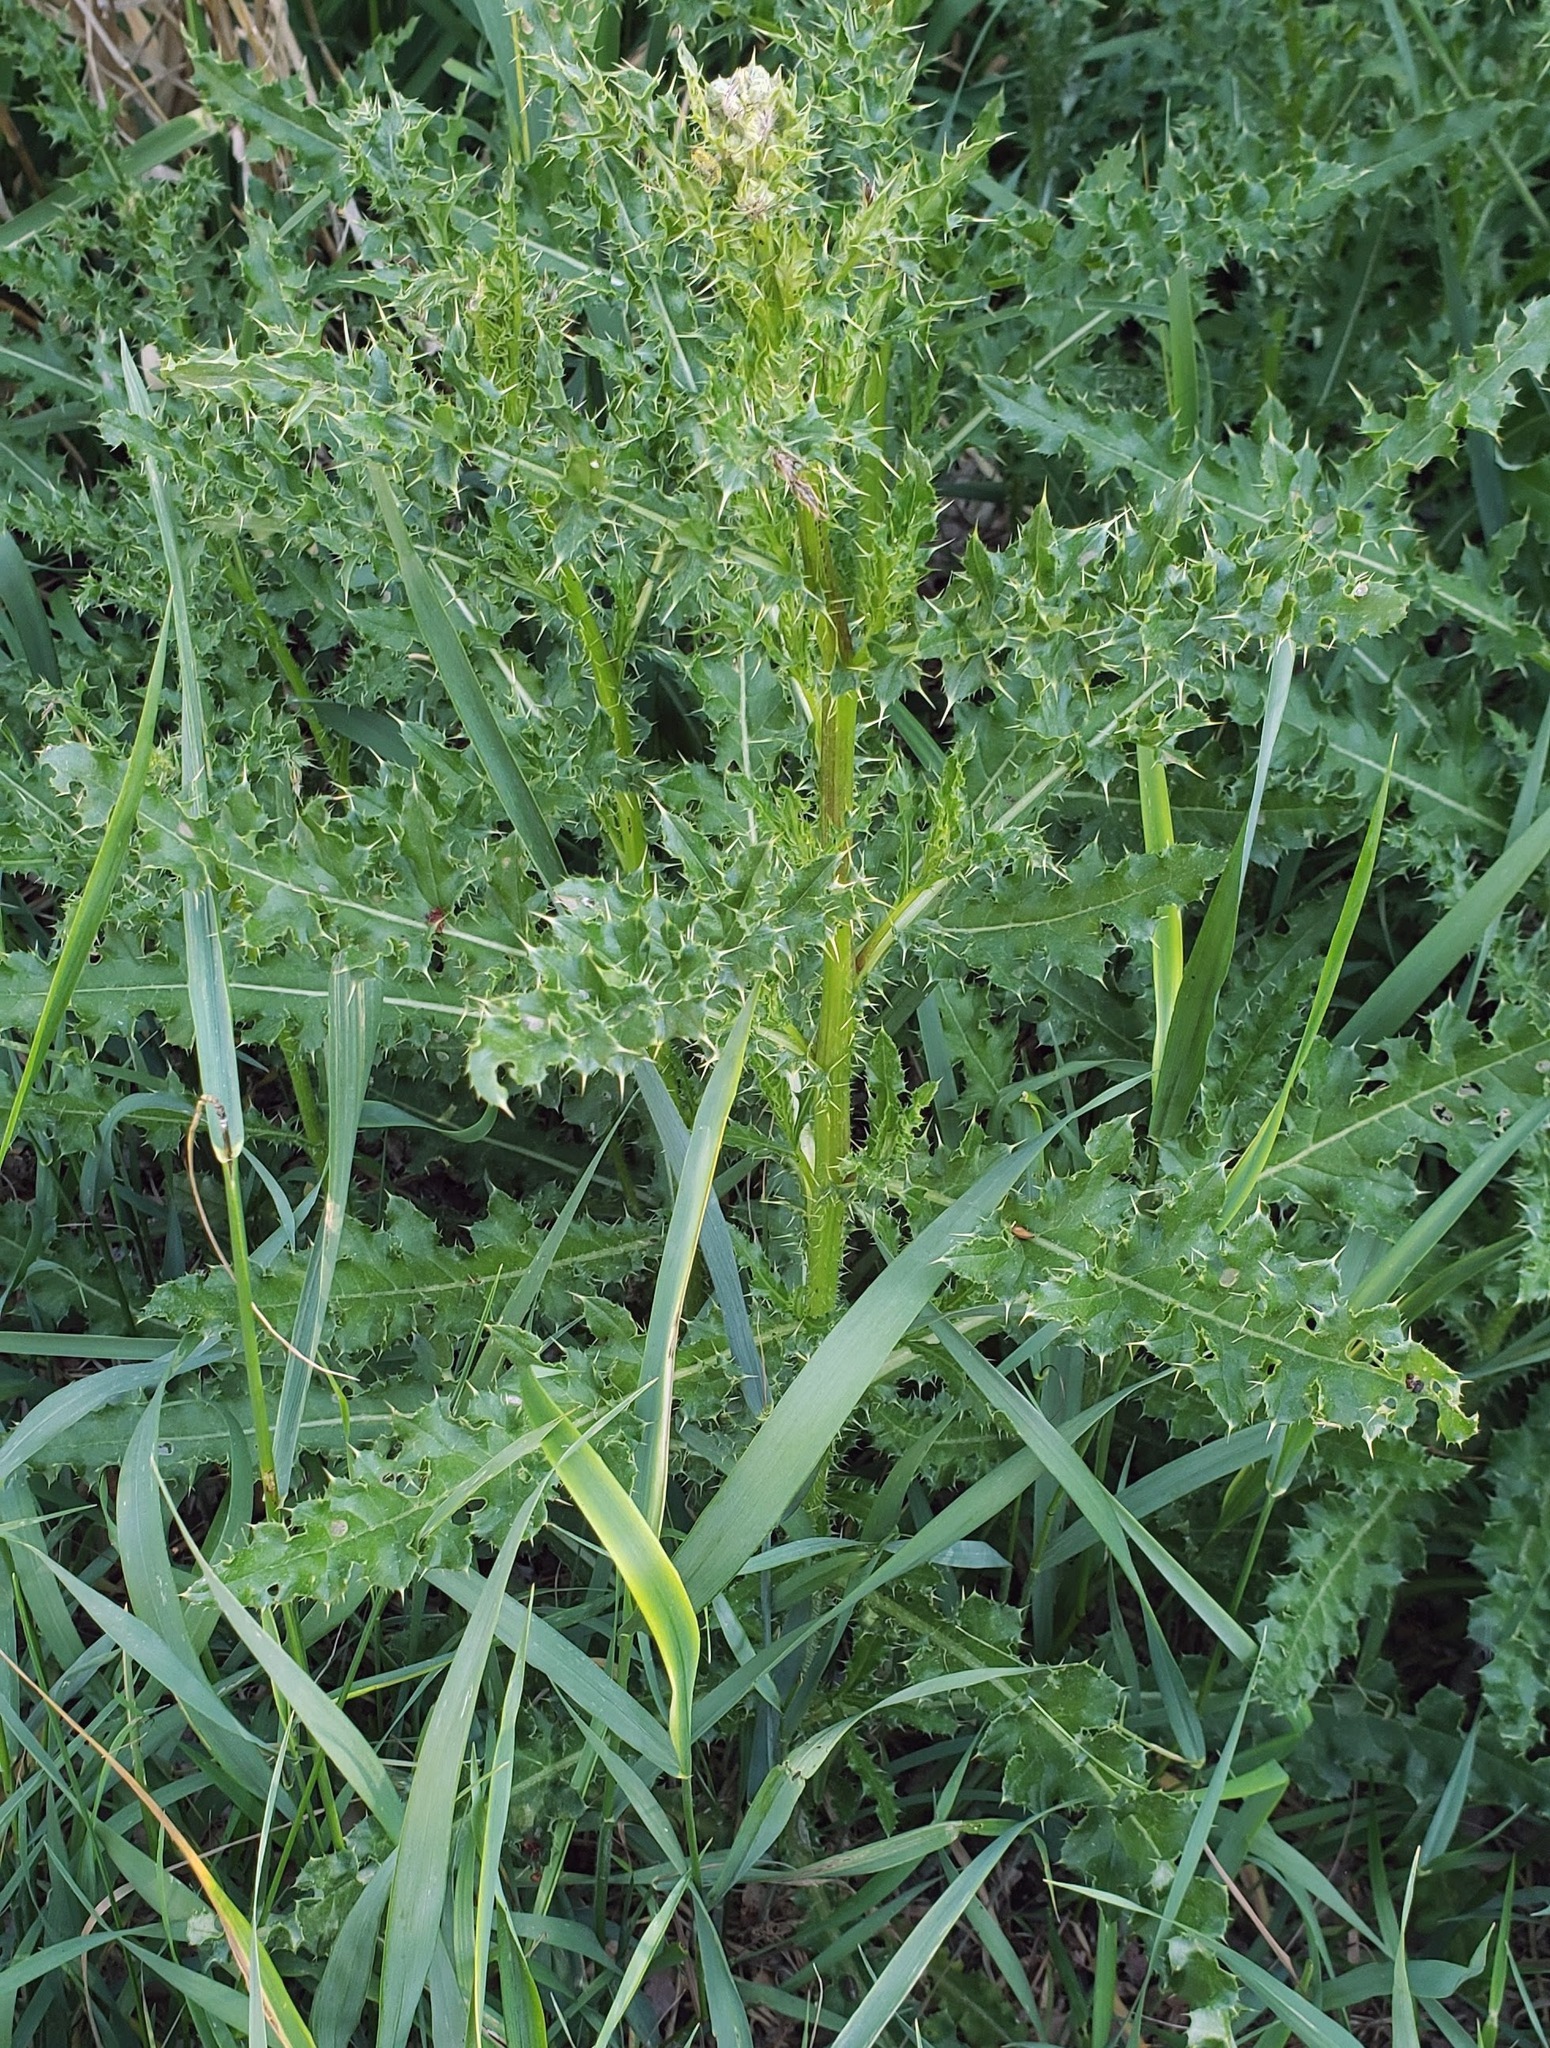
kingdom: Plantae
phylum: Tracheophyta
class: Magnoliopsida
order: Asterales
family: Asteraceae
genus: Cirsium
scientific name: Cirsium arvense
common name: Creeping thistle
